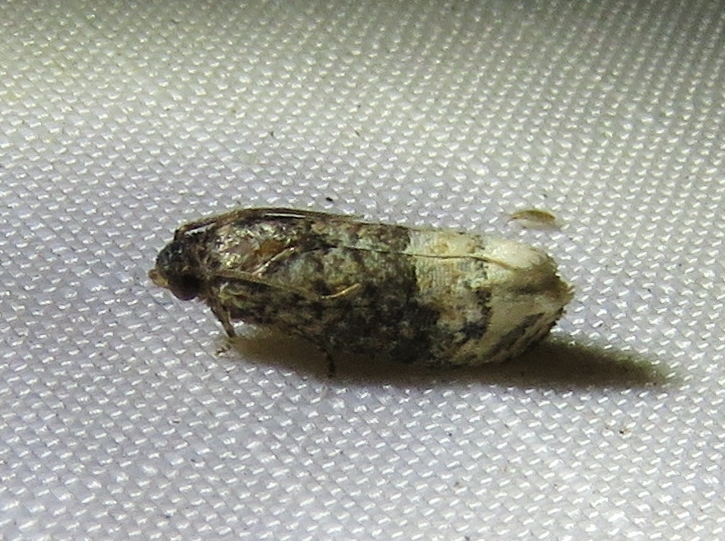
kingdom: Animalia
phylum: Arthropoda
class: Insecta
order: Lepidoptera
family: Tortricidae
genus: Ecdytolopha
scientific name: Ecdytolopha mana
